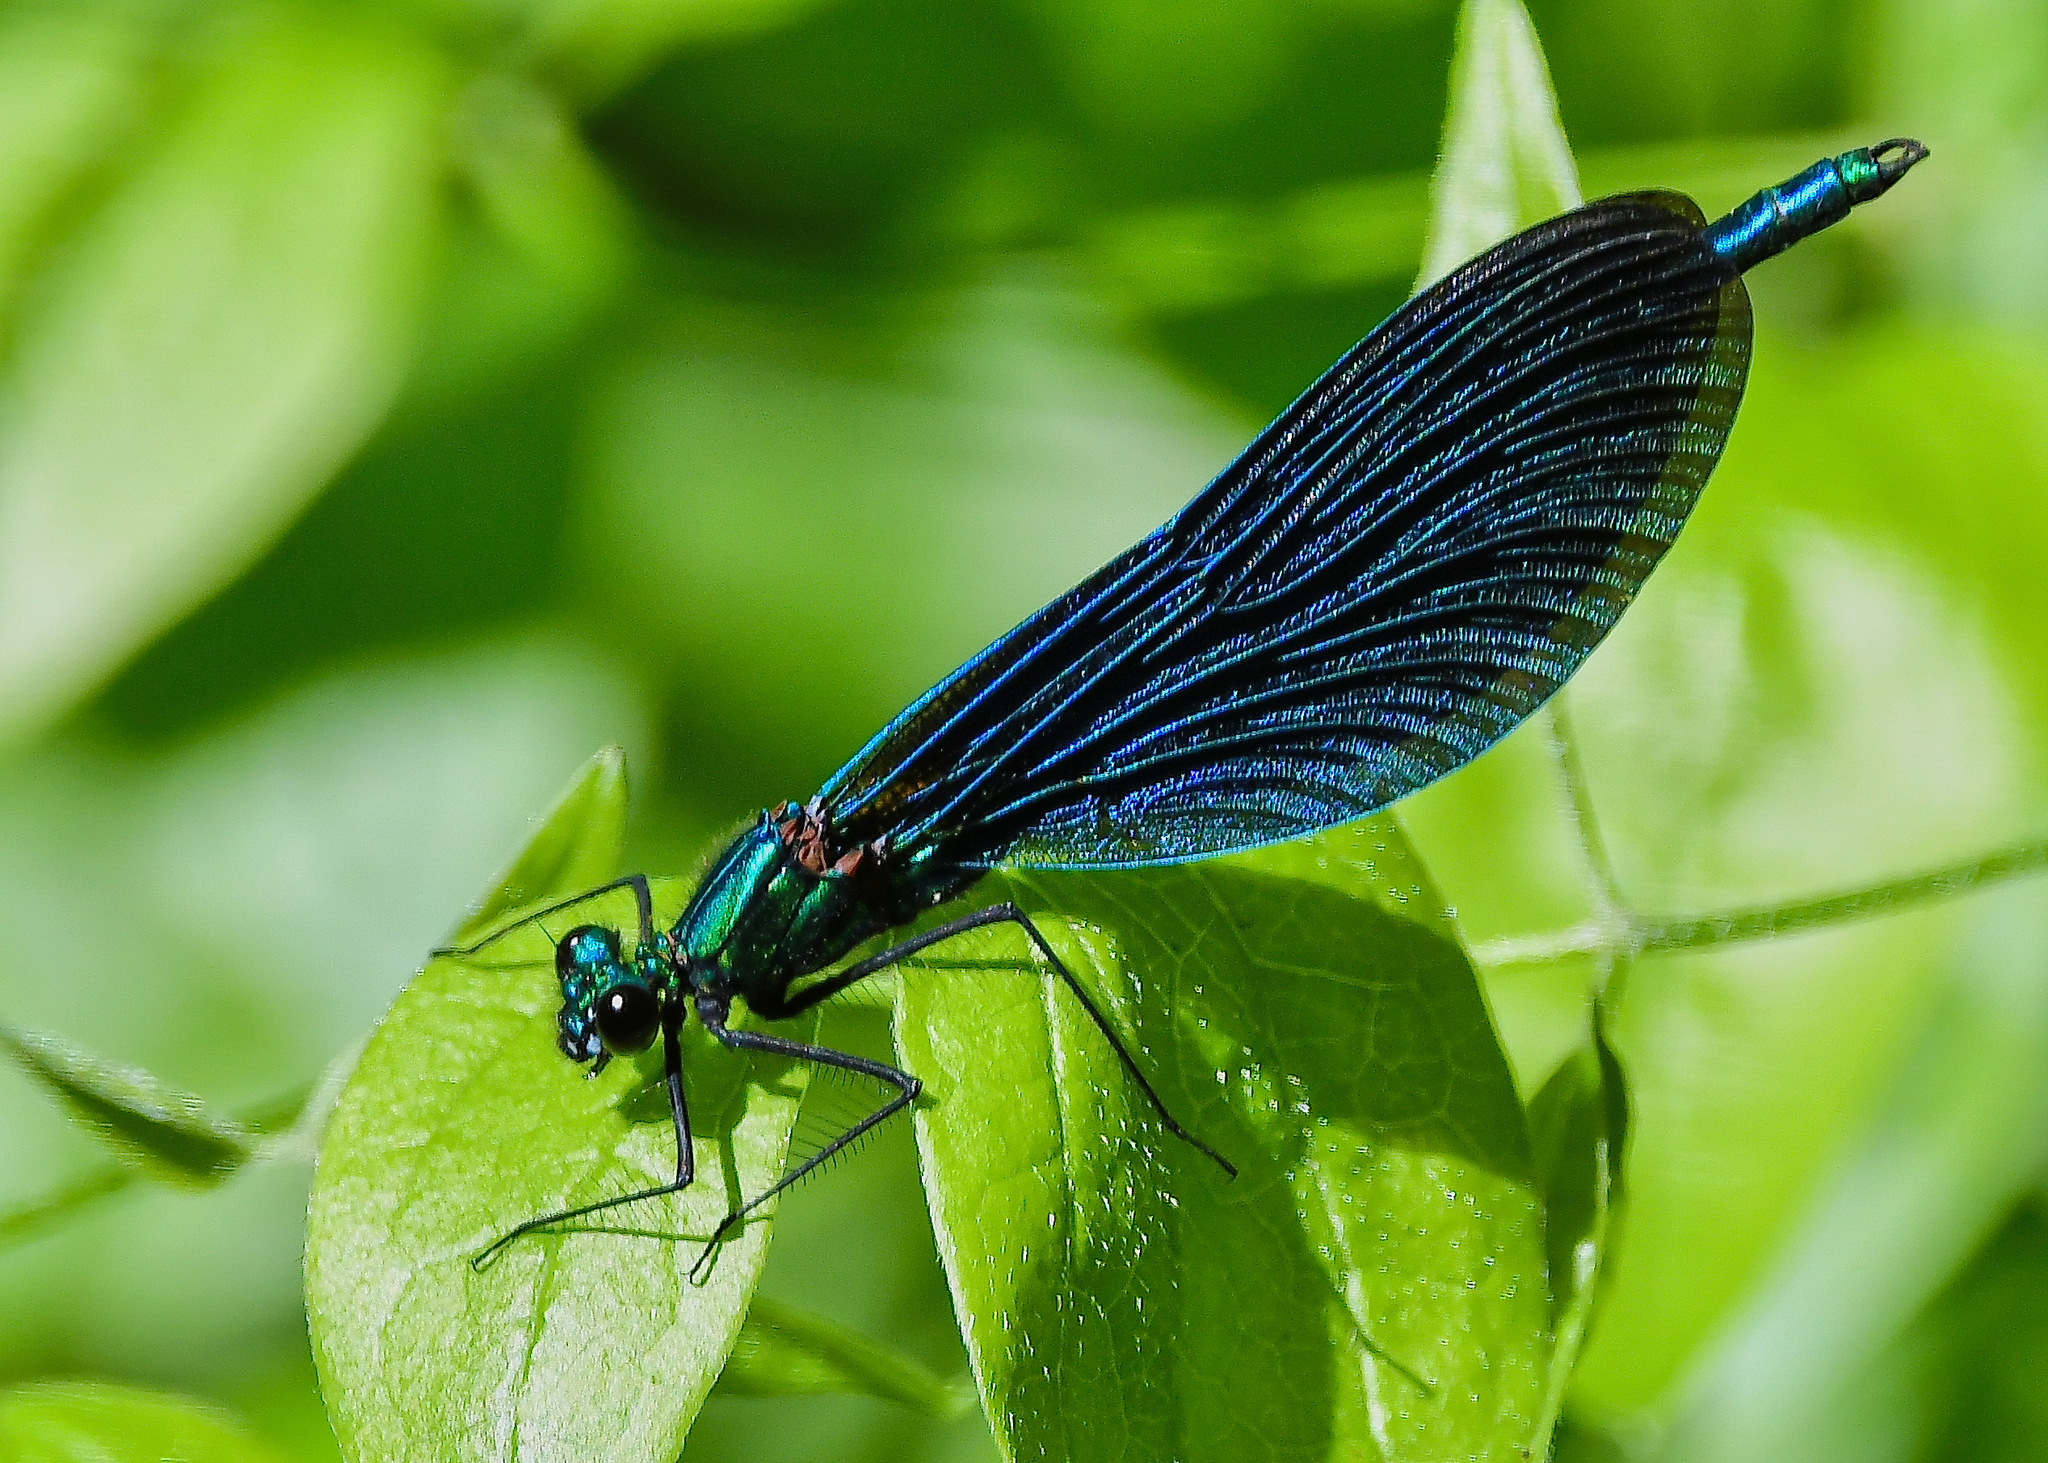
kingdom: Animalia
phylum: Arthropoda
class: Insecta
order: Odonata
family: Calopterygidae
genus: Calopteryx
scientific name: Calopteryx virgo
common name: Beautiful demoiselle
